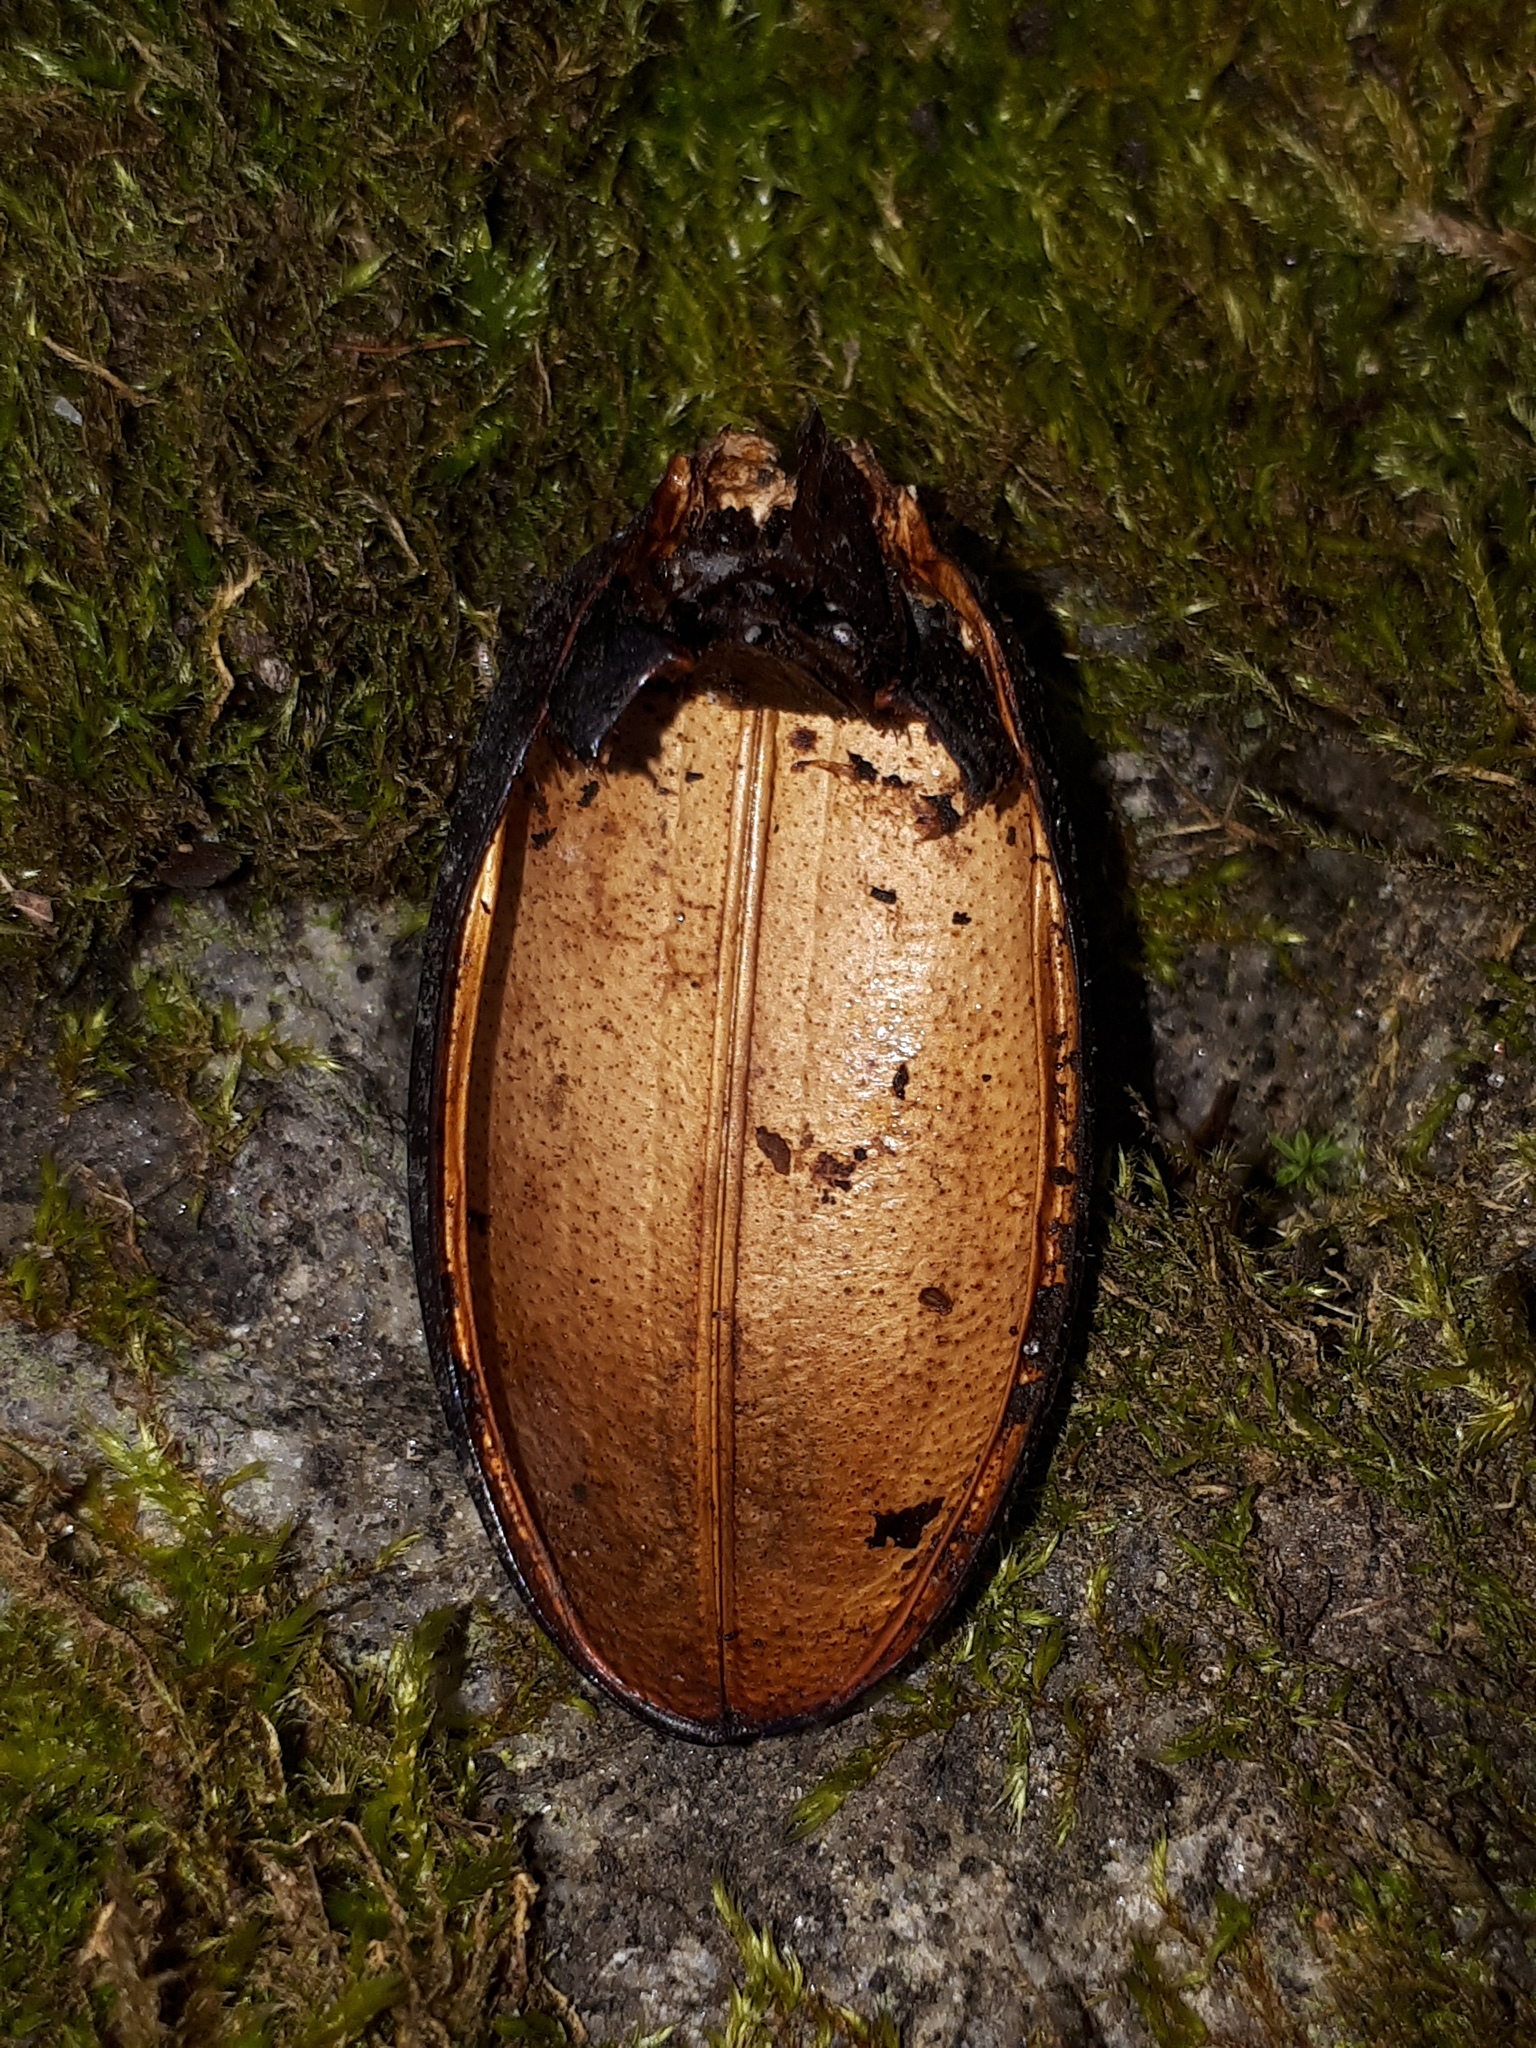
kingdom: Animalia
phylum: Arthropoda
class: Insecta
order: Coleoptera
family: Carabidae
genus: Carabus
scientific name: Carabus coriaceus
